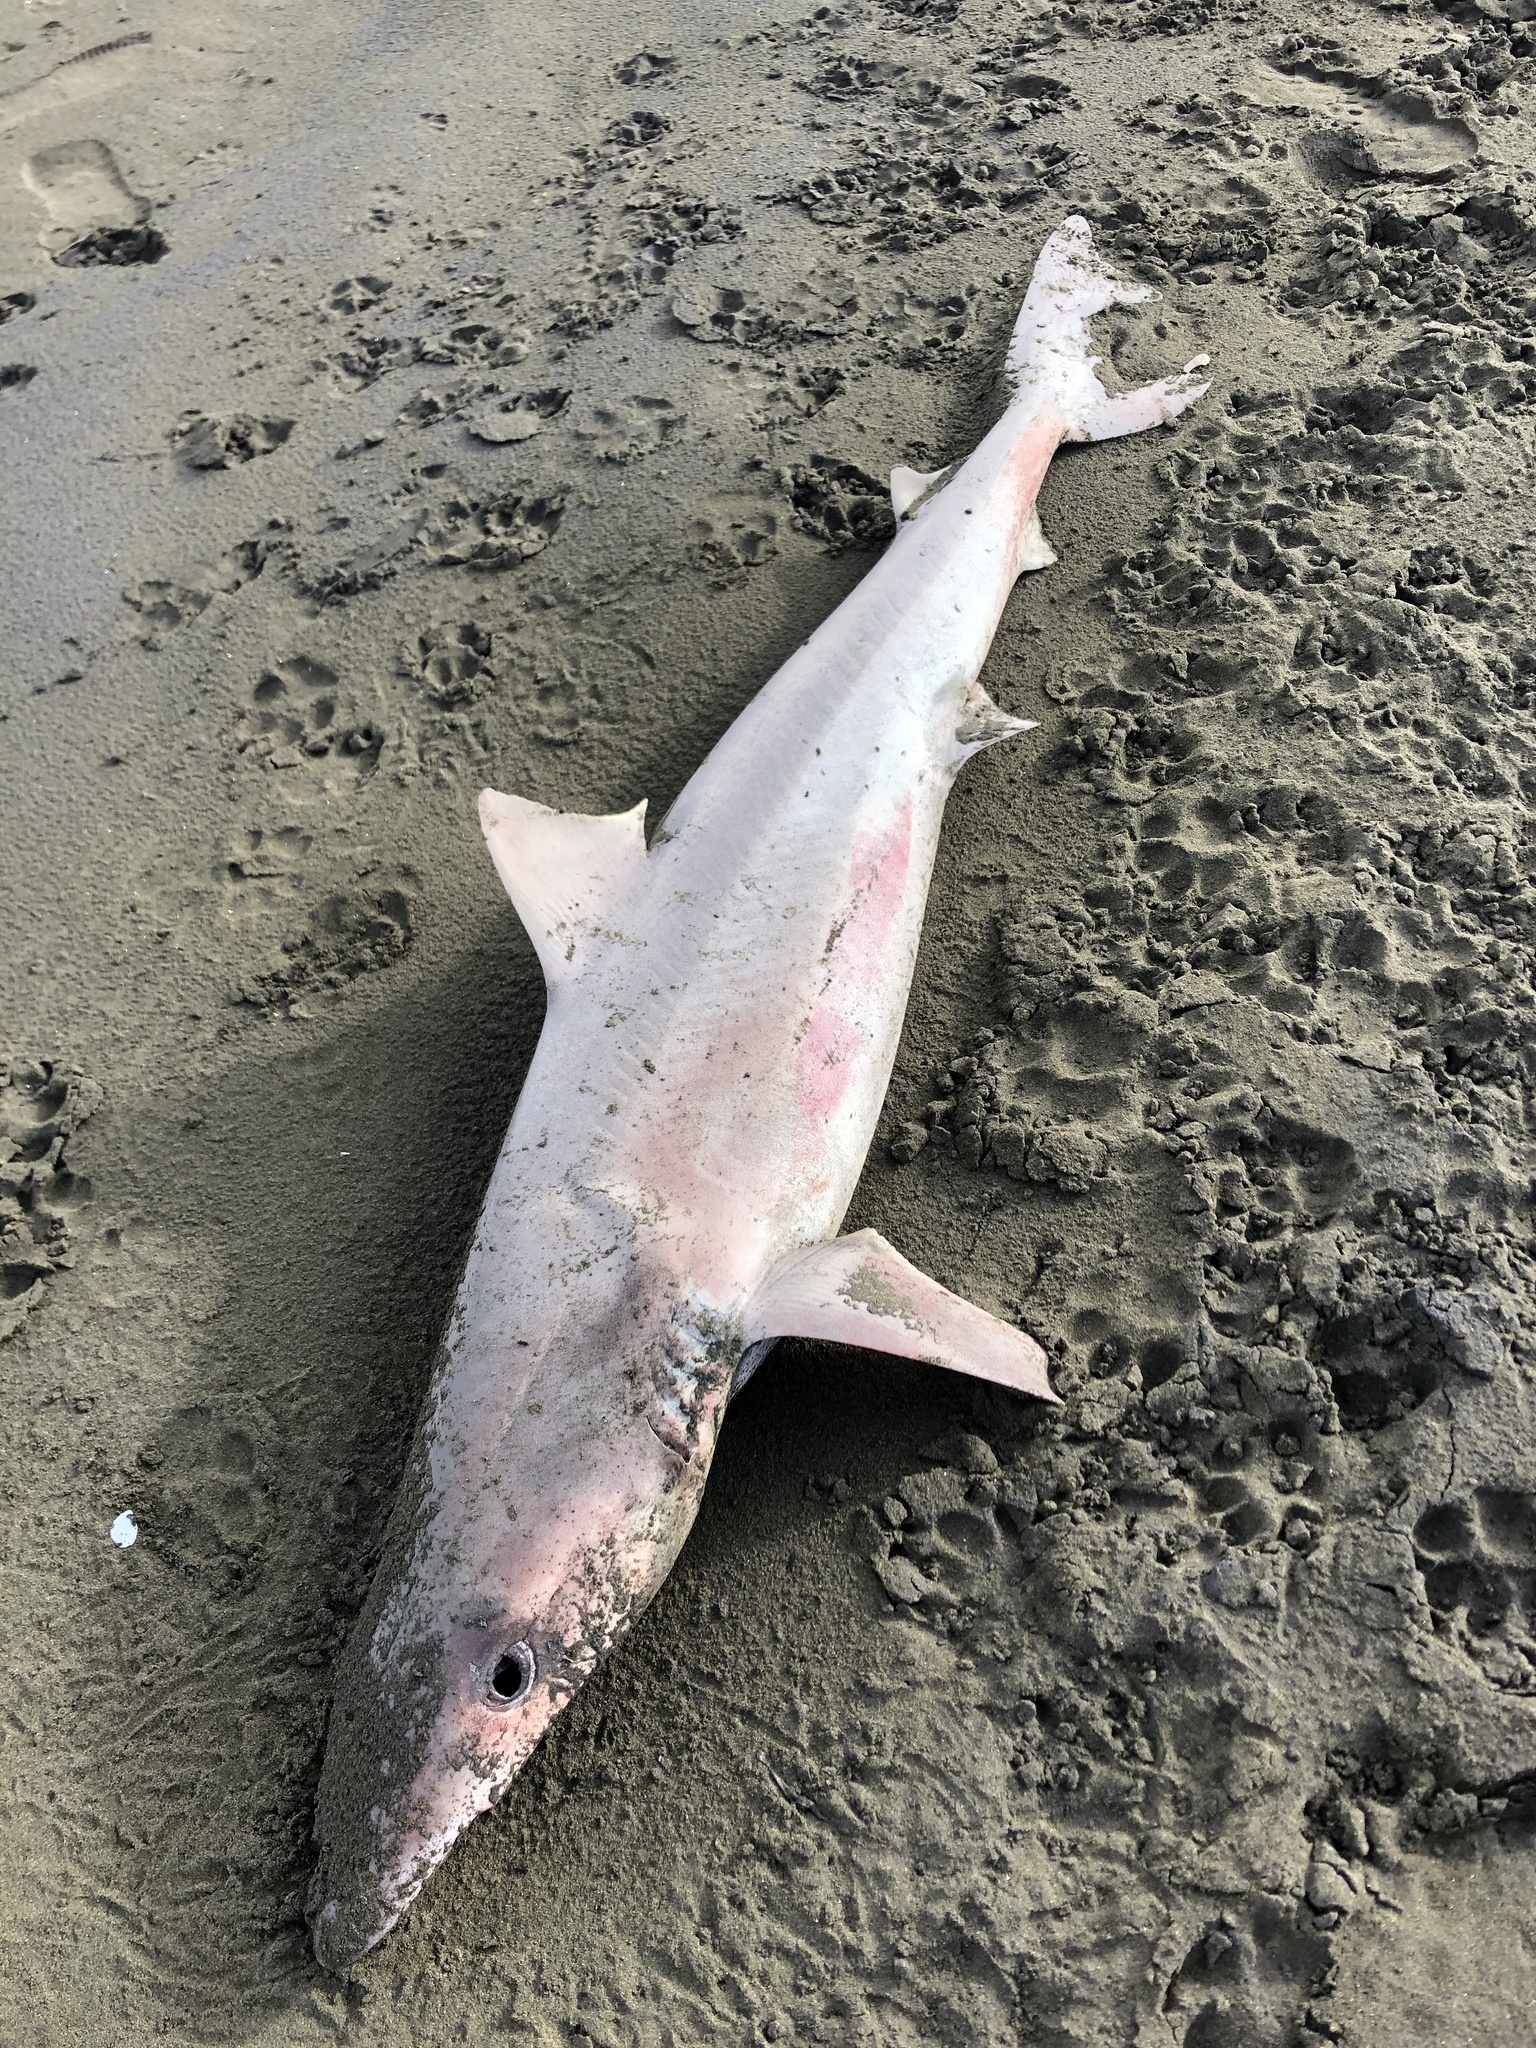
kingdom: Animalia
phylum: Chordata
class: Elasmobranchii
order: Carcharhiniformes
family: Triakidae
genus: Galeorhinus
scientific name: Galeorhinus galeus
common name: Tope
